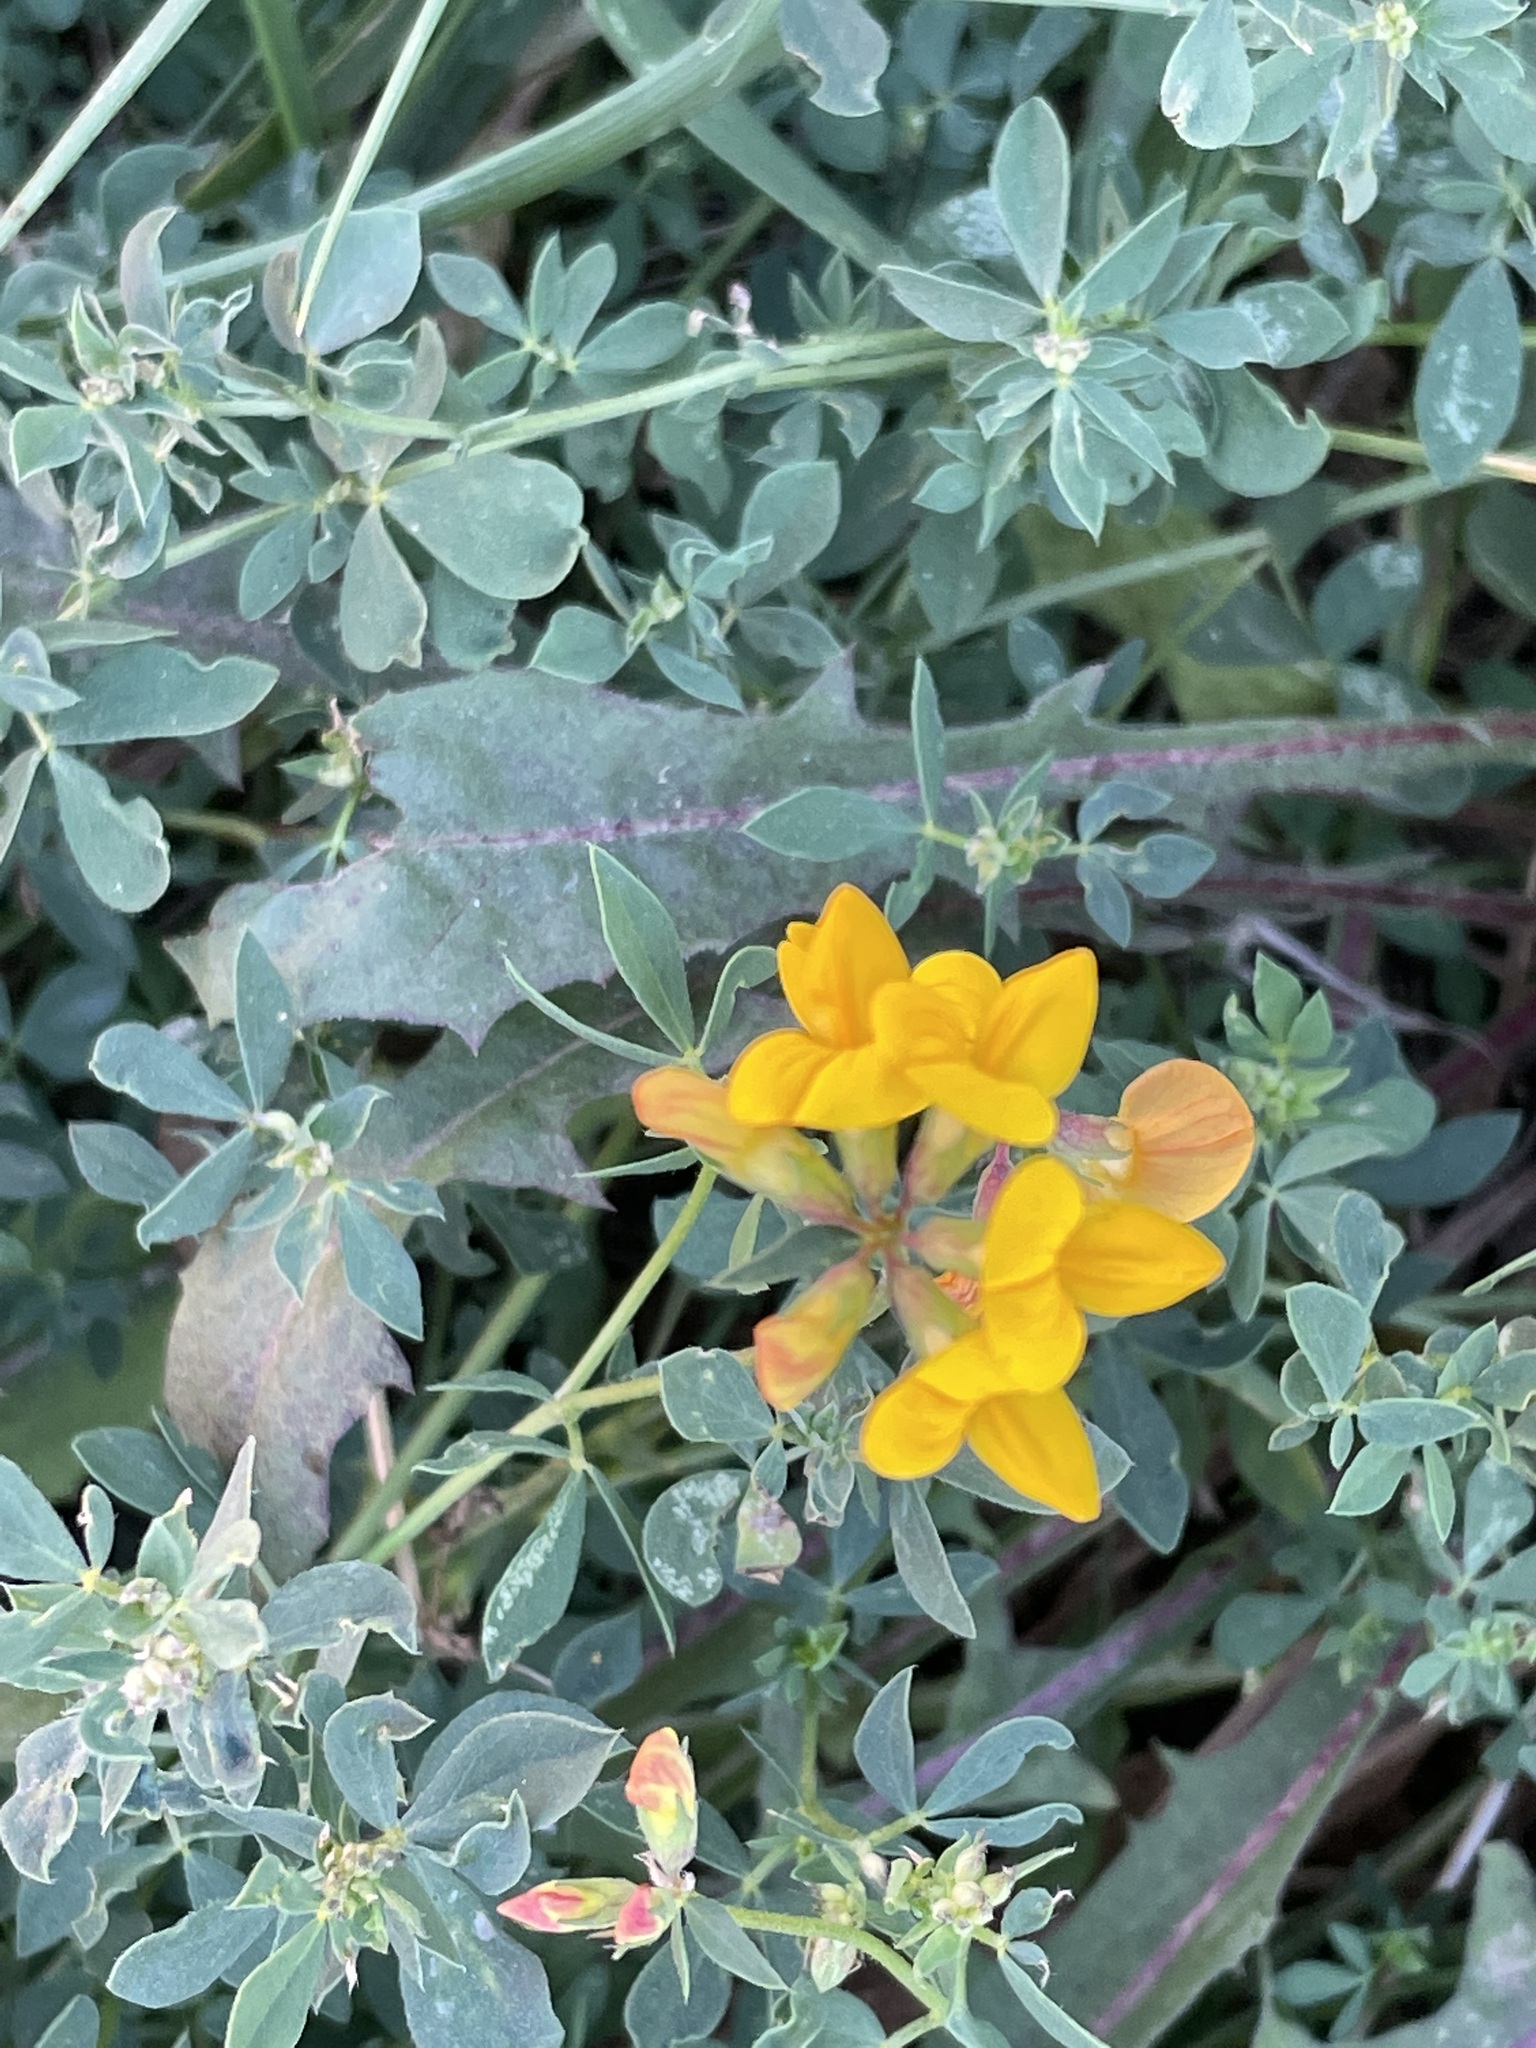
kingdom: Plantae
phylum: Tracheophyta
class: Magnoliopsida
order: Fabales
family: Fabaceae
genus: Lotus
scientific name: Lotus corniculatus
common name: Common bird's-foot-trefoil
